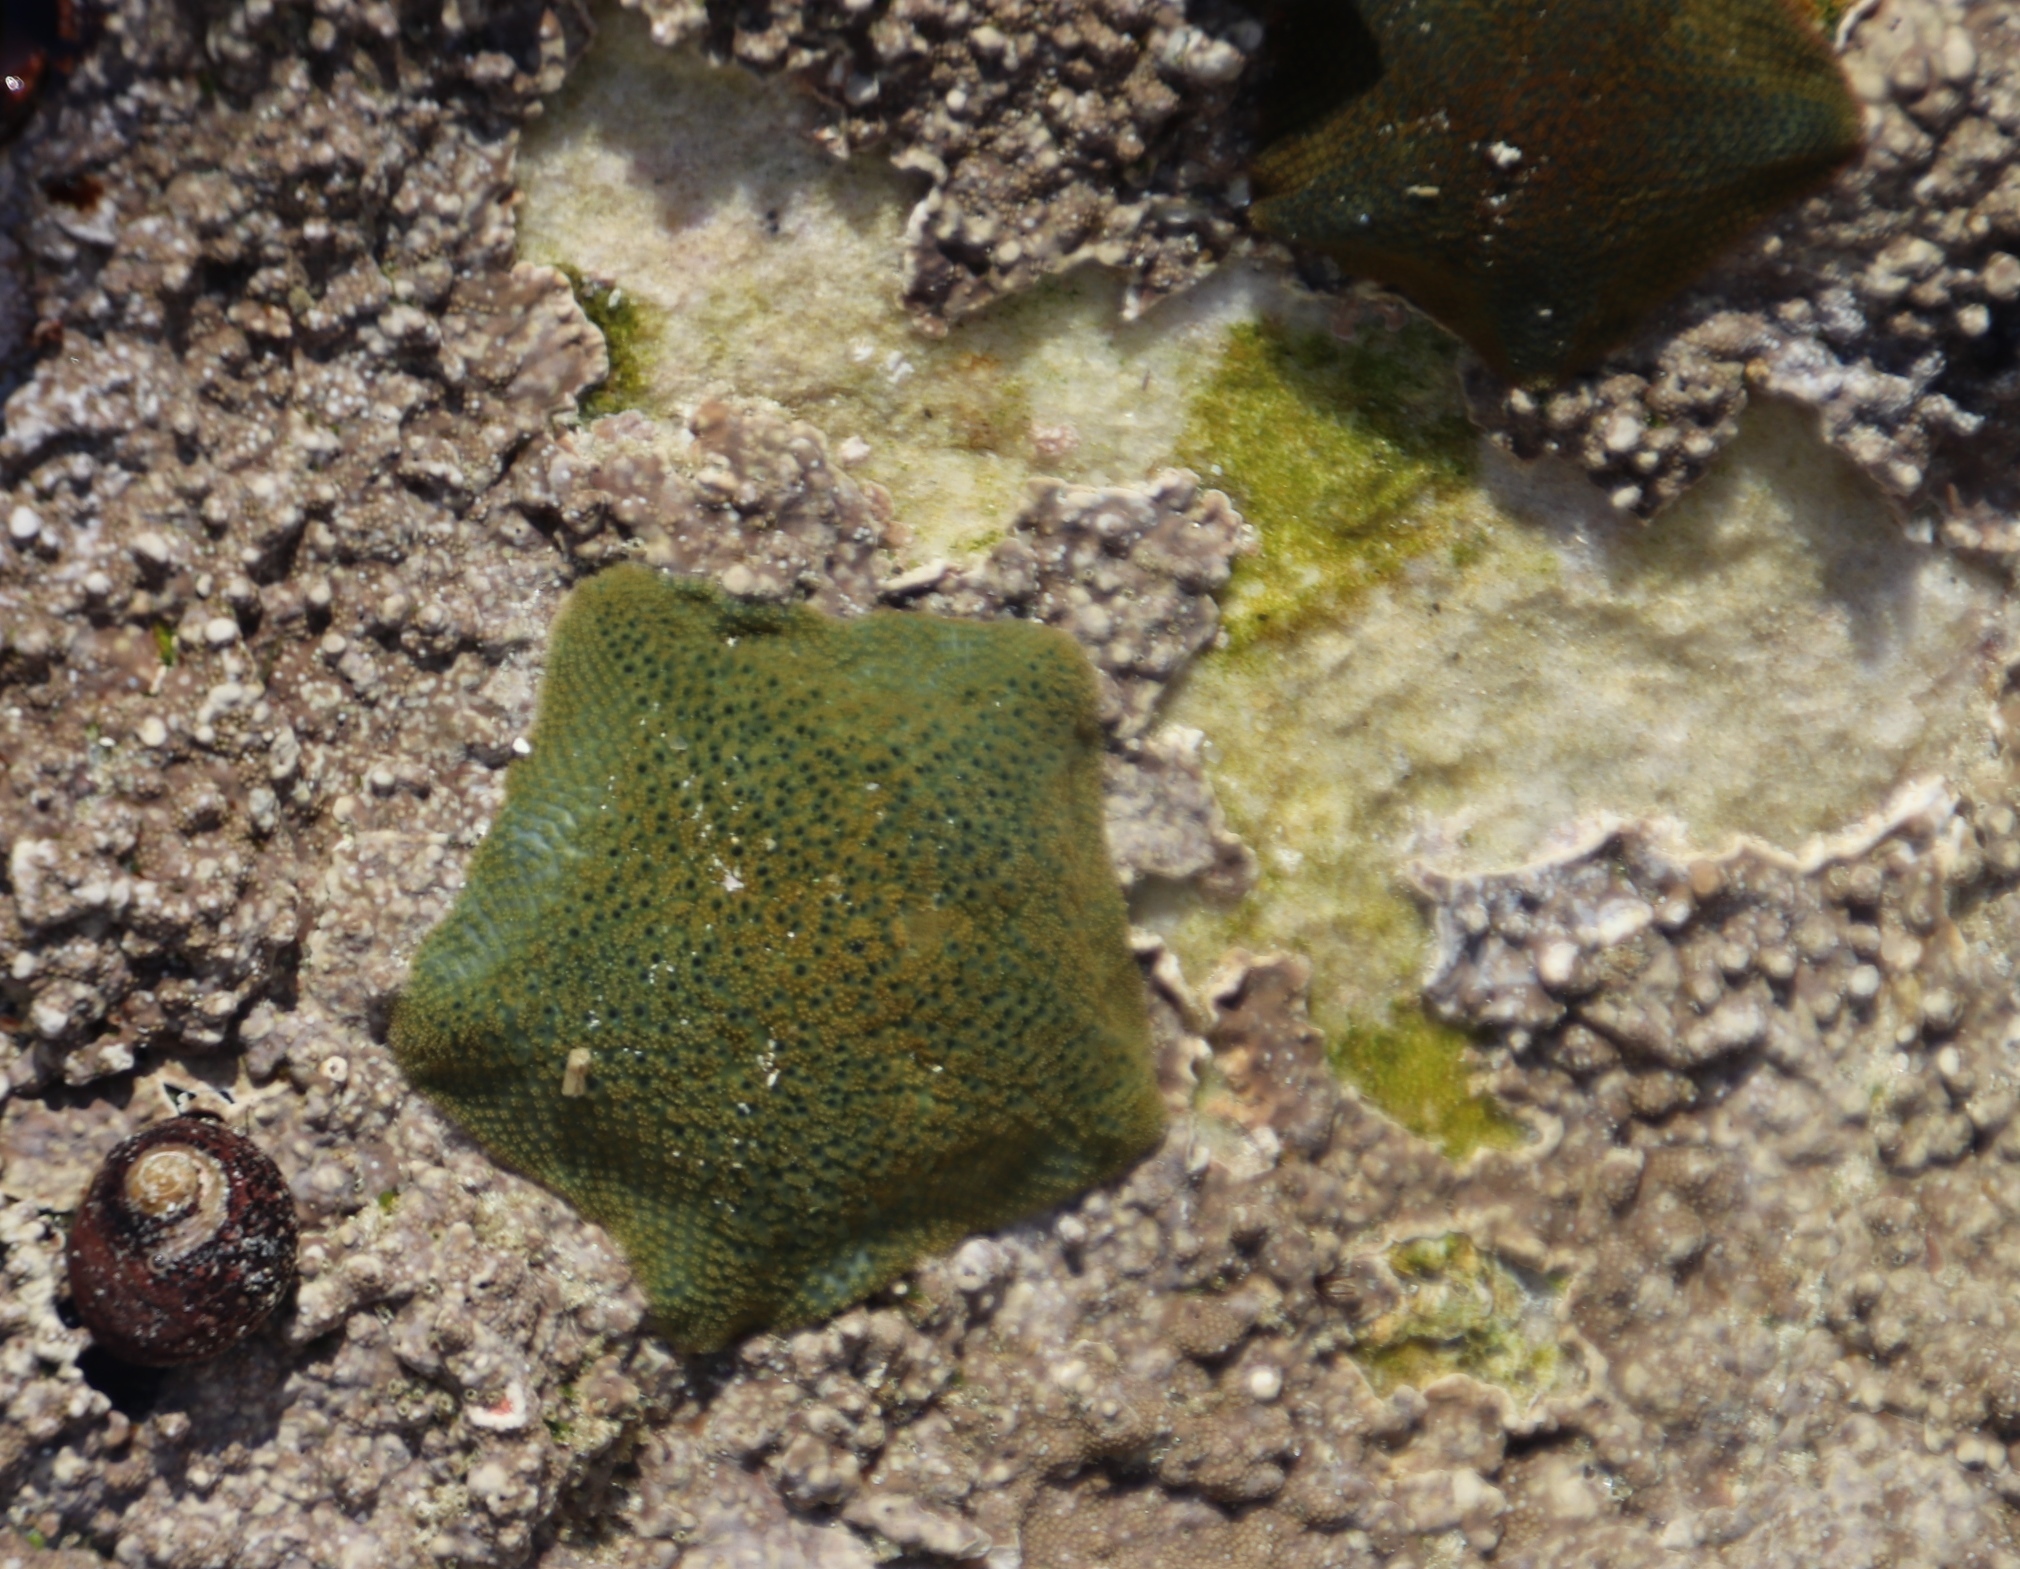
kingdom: Animalia
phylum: Echinodermata
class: Asteroidea
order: Valvatida
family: Asterinidae
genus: Parvulastra
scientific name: Parvulastra exigua
